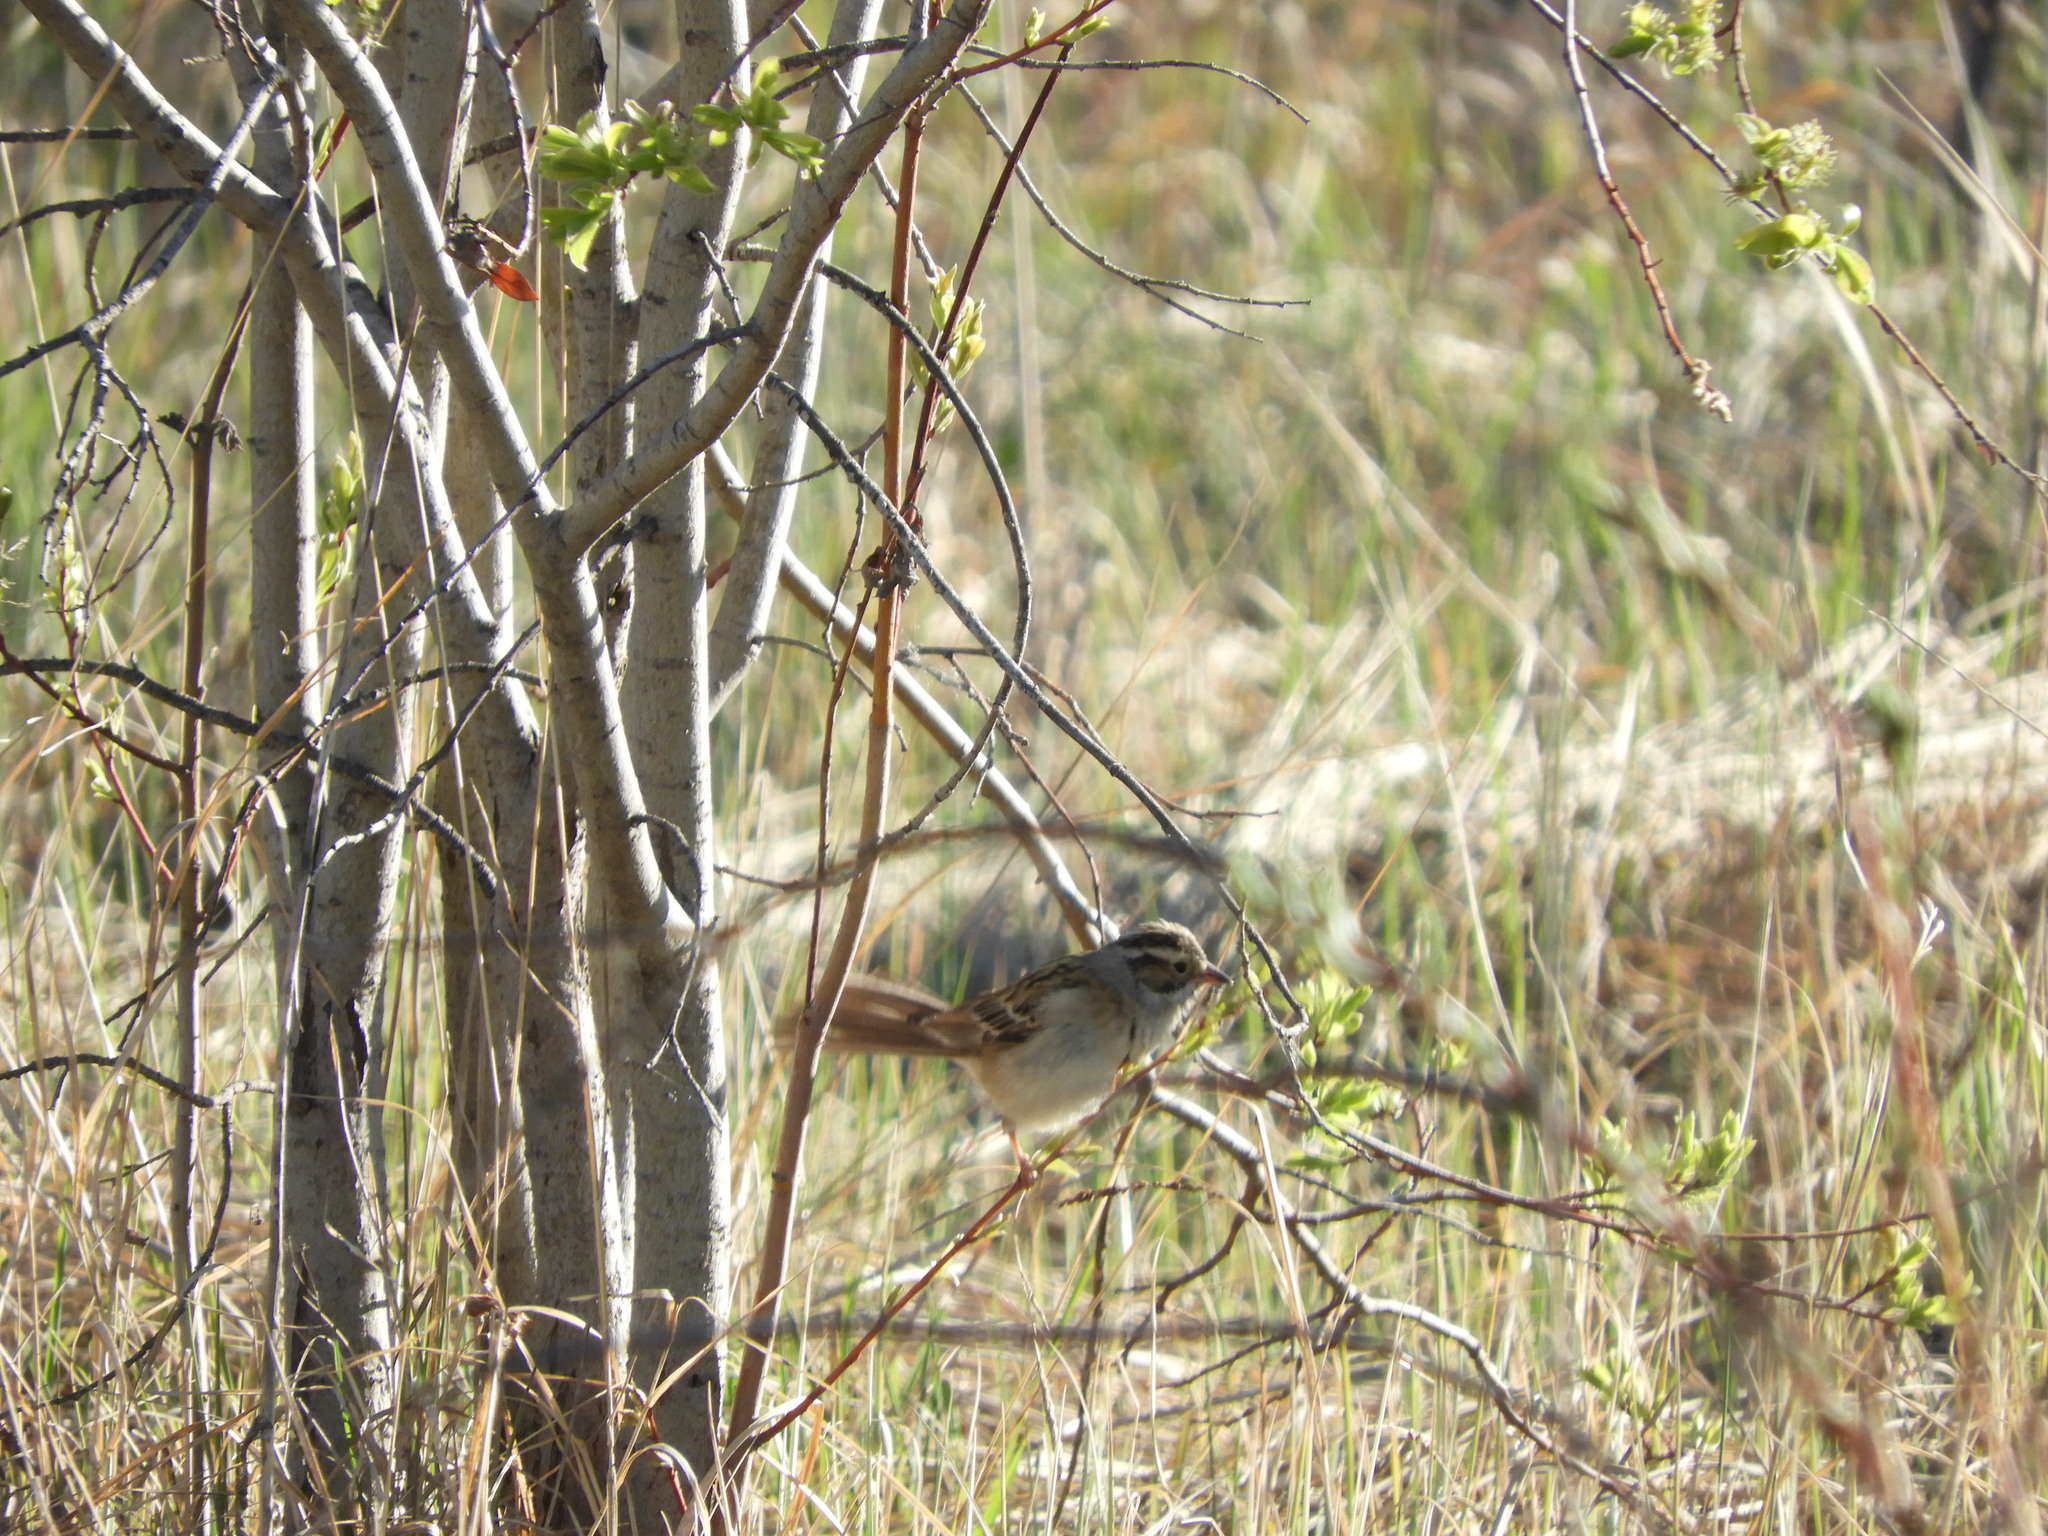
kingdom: Animalia
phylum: Chordata
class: Aves
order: Passeriformes
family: Passerellidae
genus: Spizella
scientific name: Spizella pallida
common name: Clay-colored sparrow
